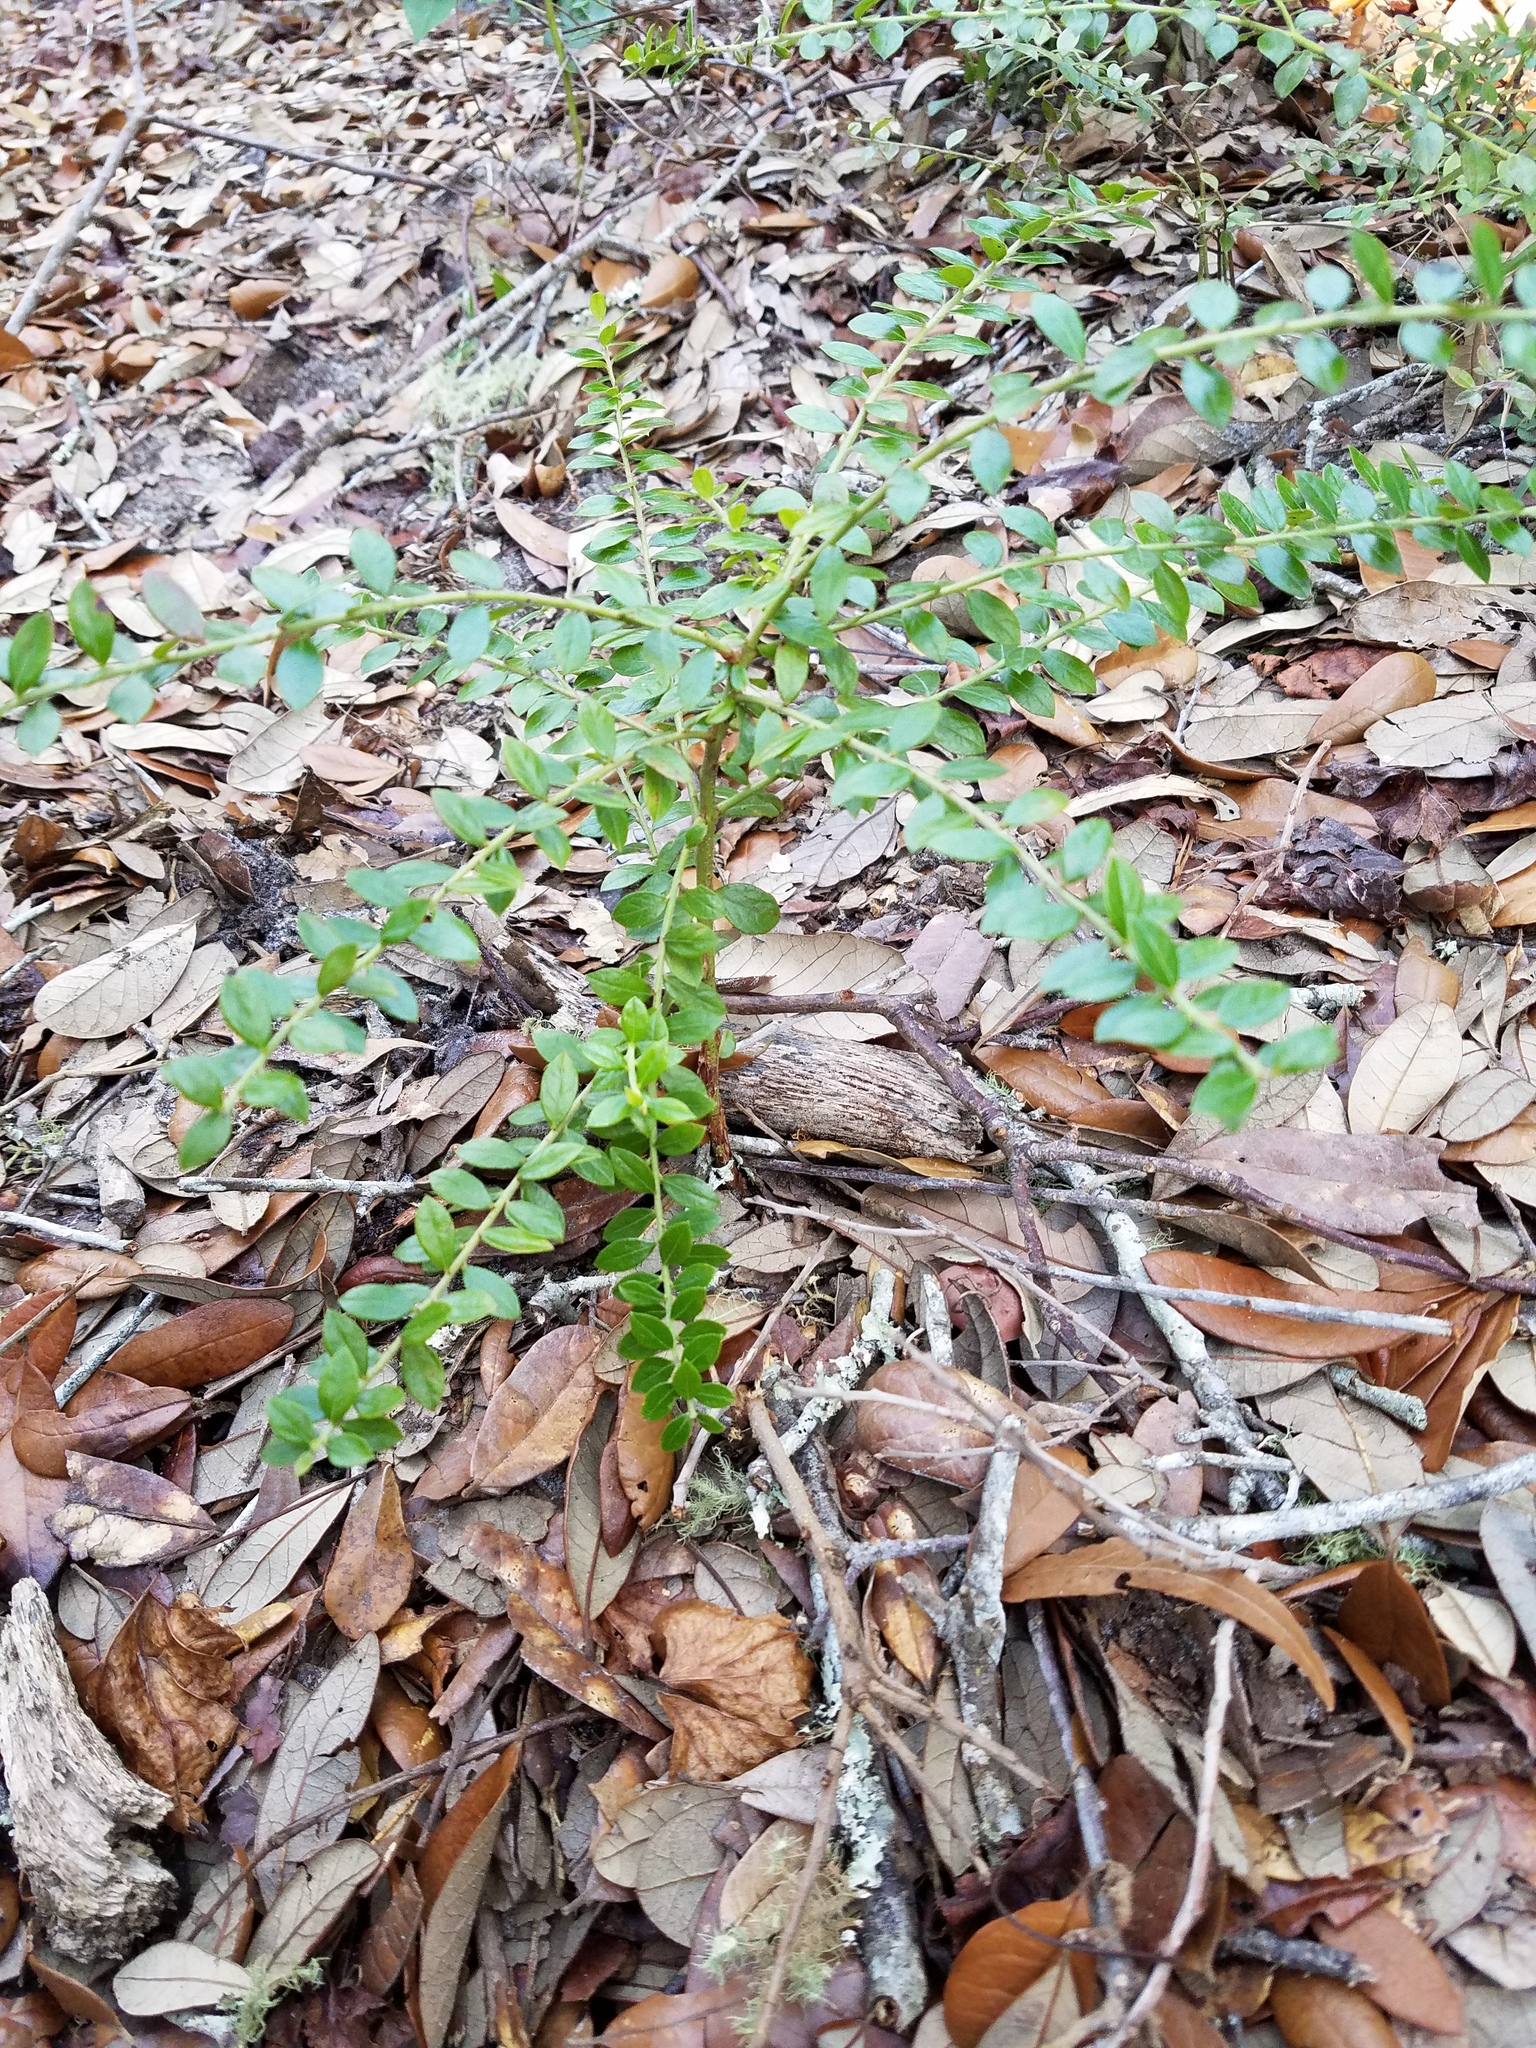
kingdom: Plantae
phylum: Tracheophyta
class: Magnoliopsida
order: Ericales
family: Ericaceae
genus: Vaccinium
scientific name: Vaccinium myrsinites
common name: Evergreen blueberry
